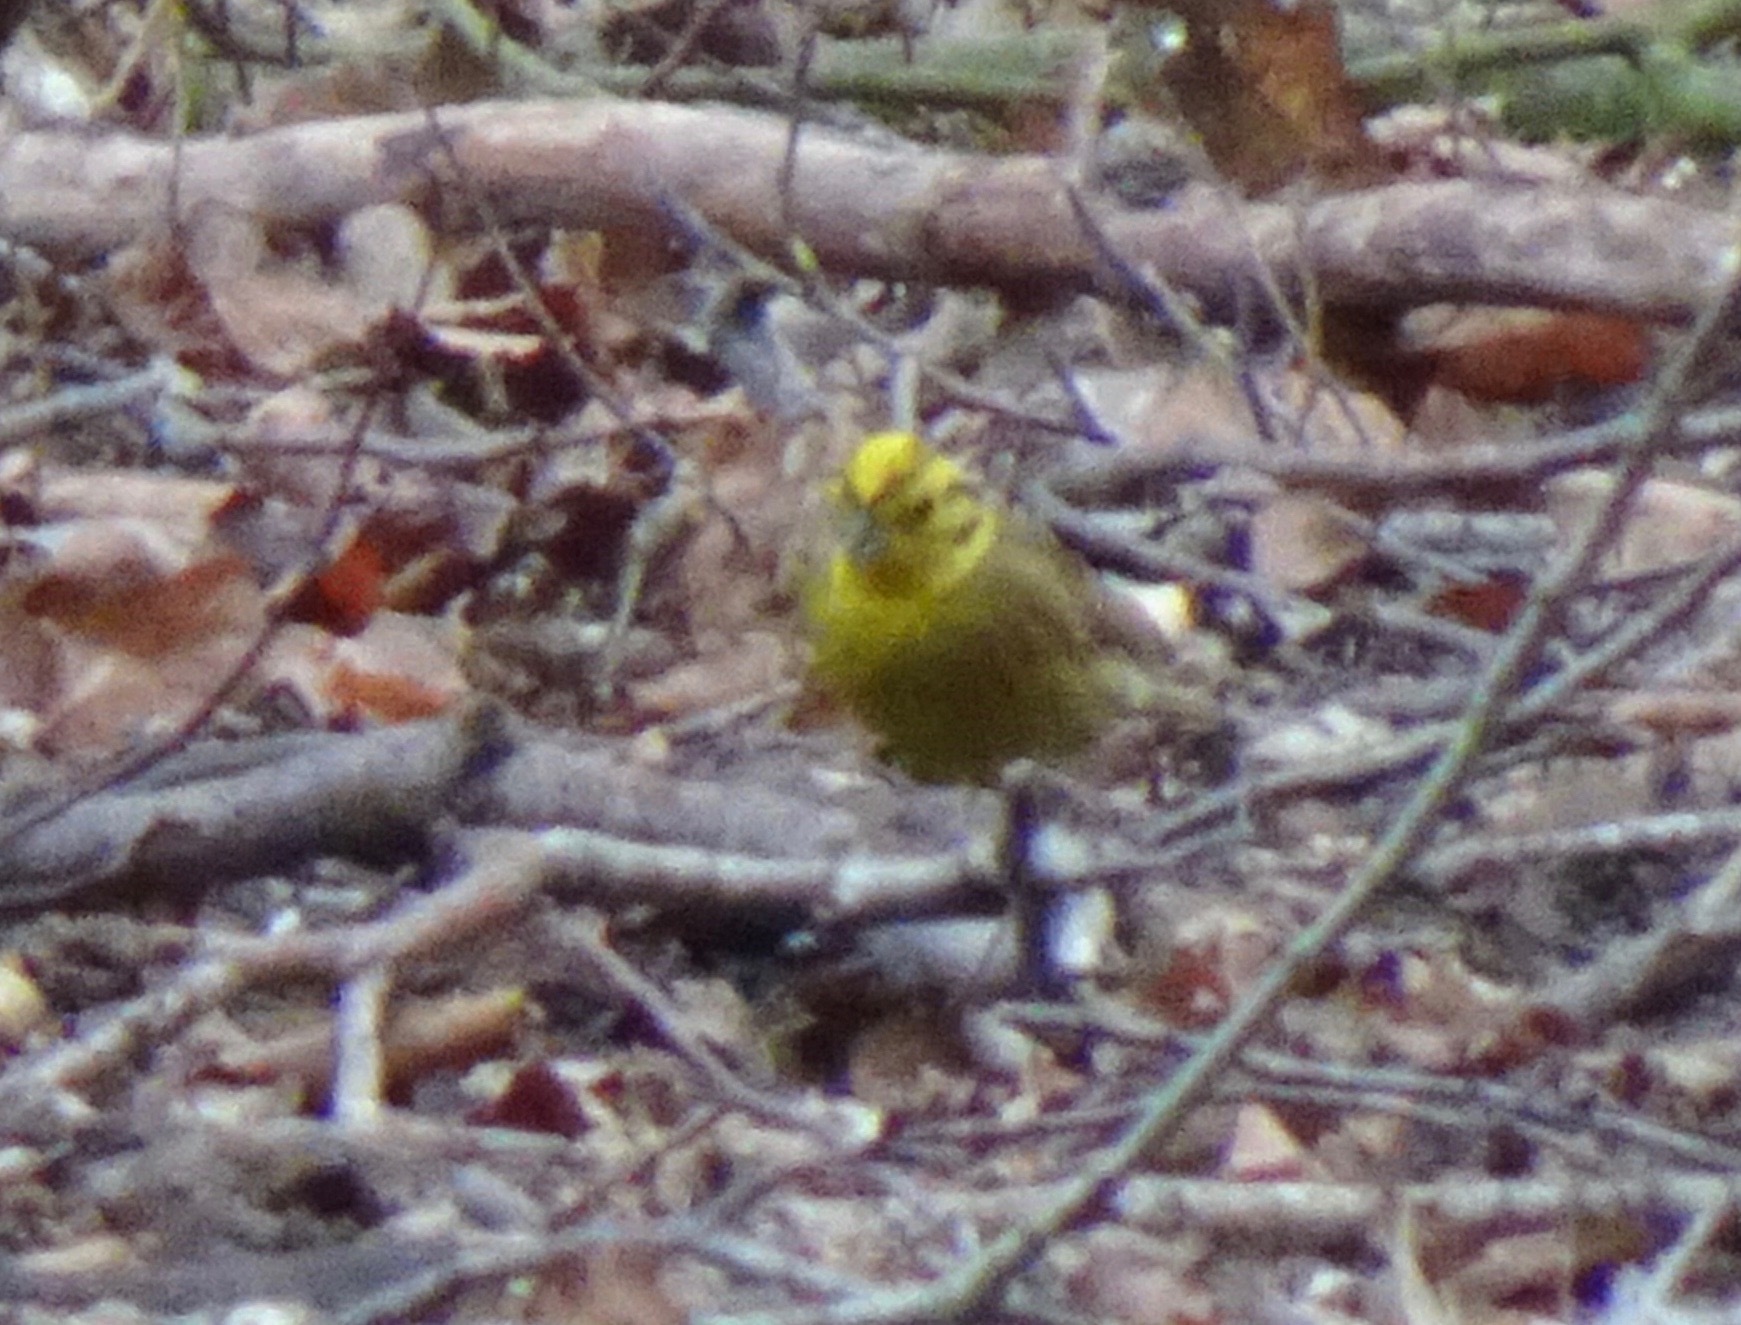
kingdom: Animalia
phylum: Chordata
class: Aves
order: Passeriformes
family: Emberizidae
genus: Emberiza
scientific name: Emberiza citrinella
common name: Yellowhammer
